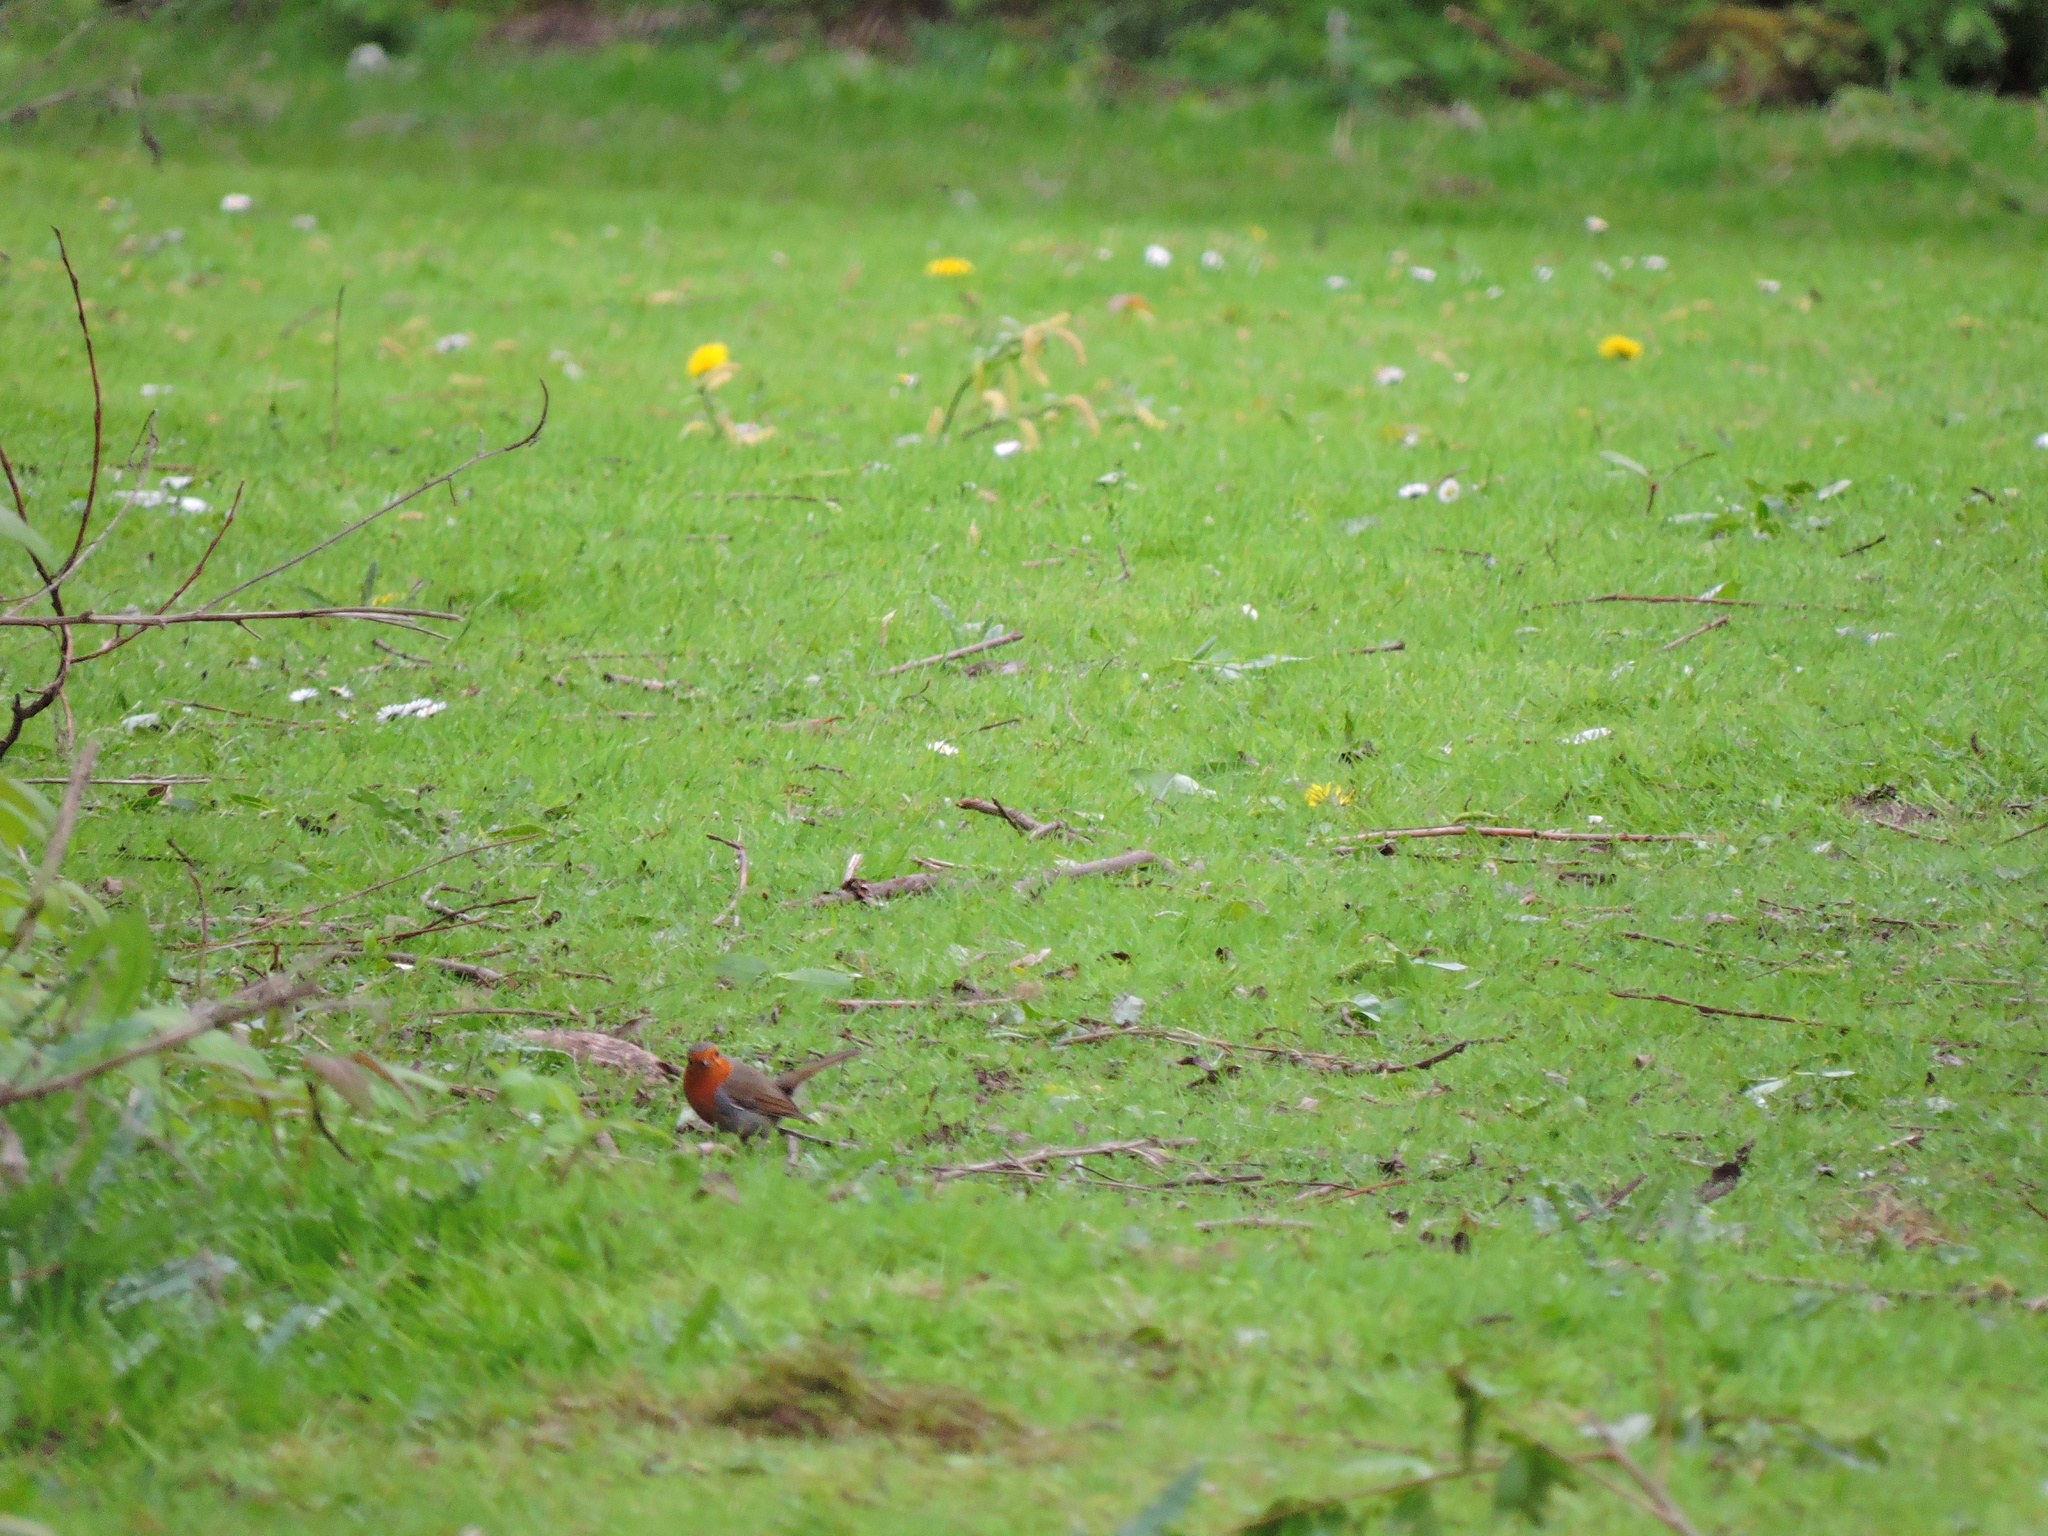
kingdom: Animalia
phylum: Chordata
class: Aves
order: Passeriformes
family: Muscicapidae
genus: Erithacus
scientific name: Erithacus rubecula
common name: European robin
